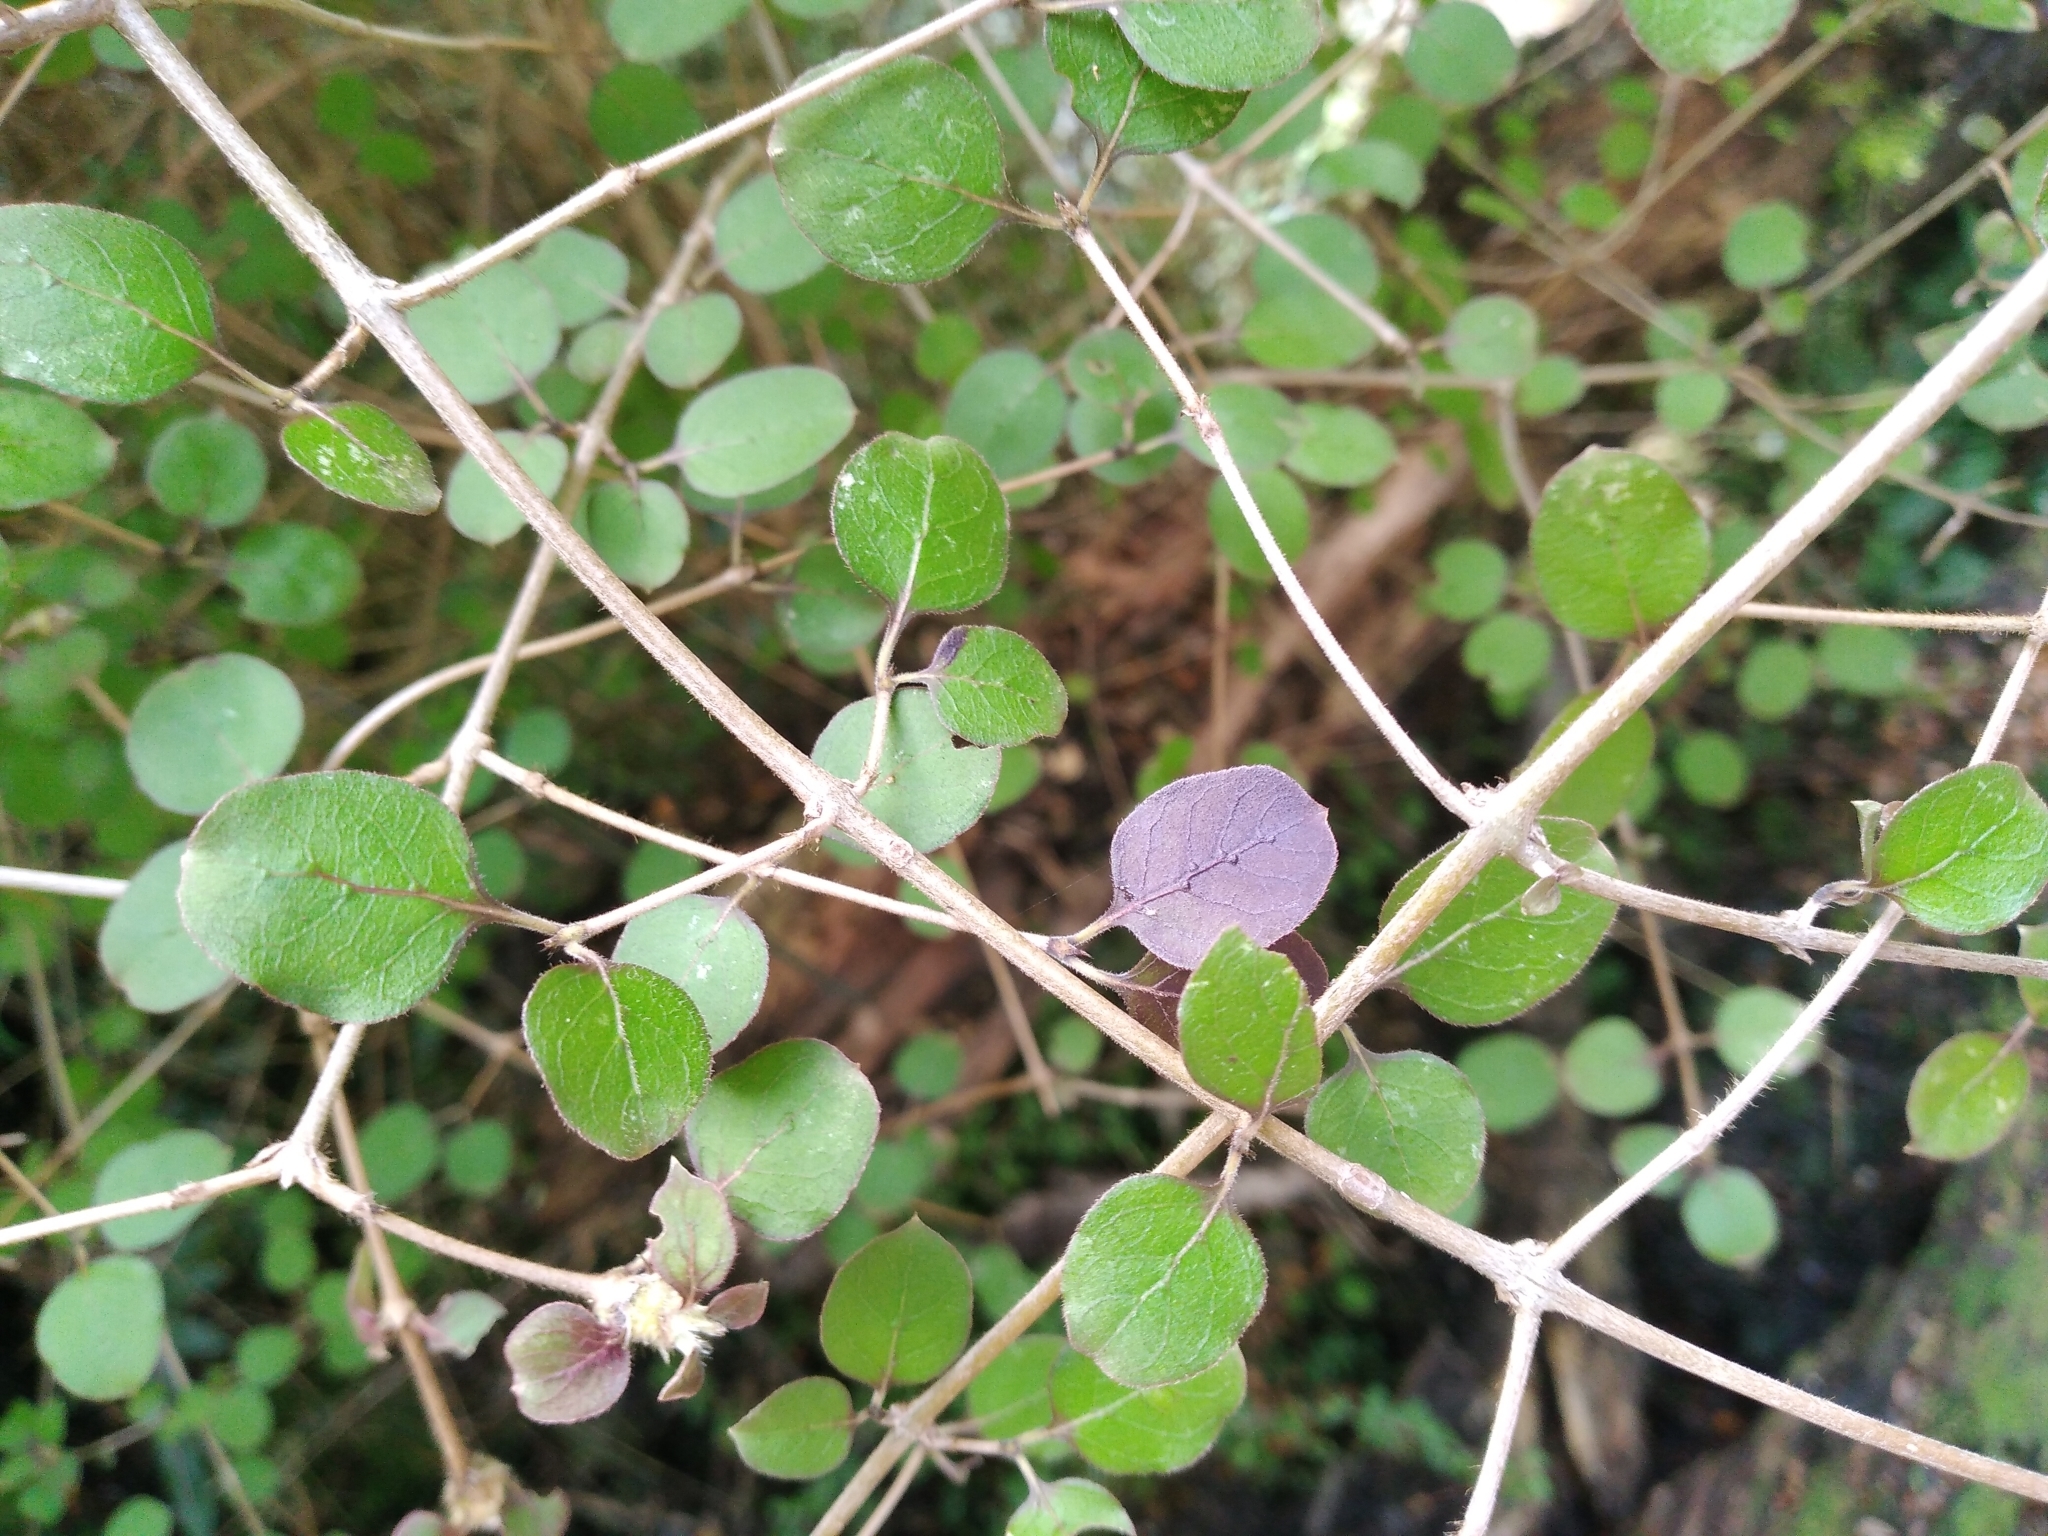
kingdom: Plantae
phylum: Tracheophyta
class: Magnoliopsida
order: Gentianales
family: Rubiaceae
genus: Coprosma
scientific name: Coprosma rotundifolia
